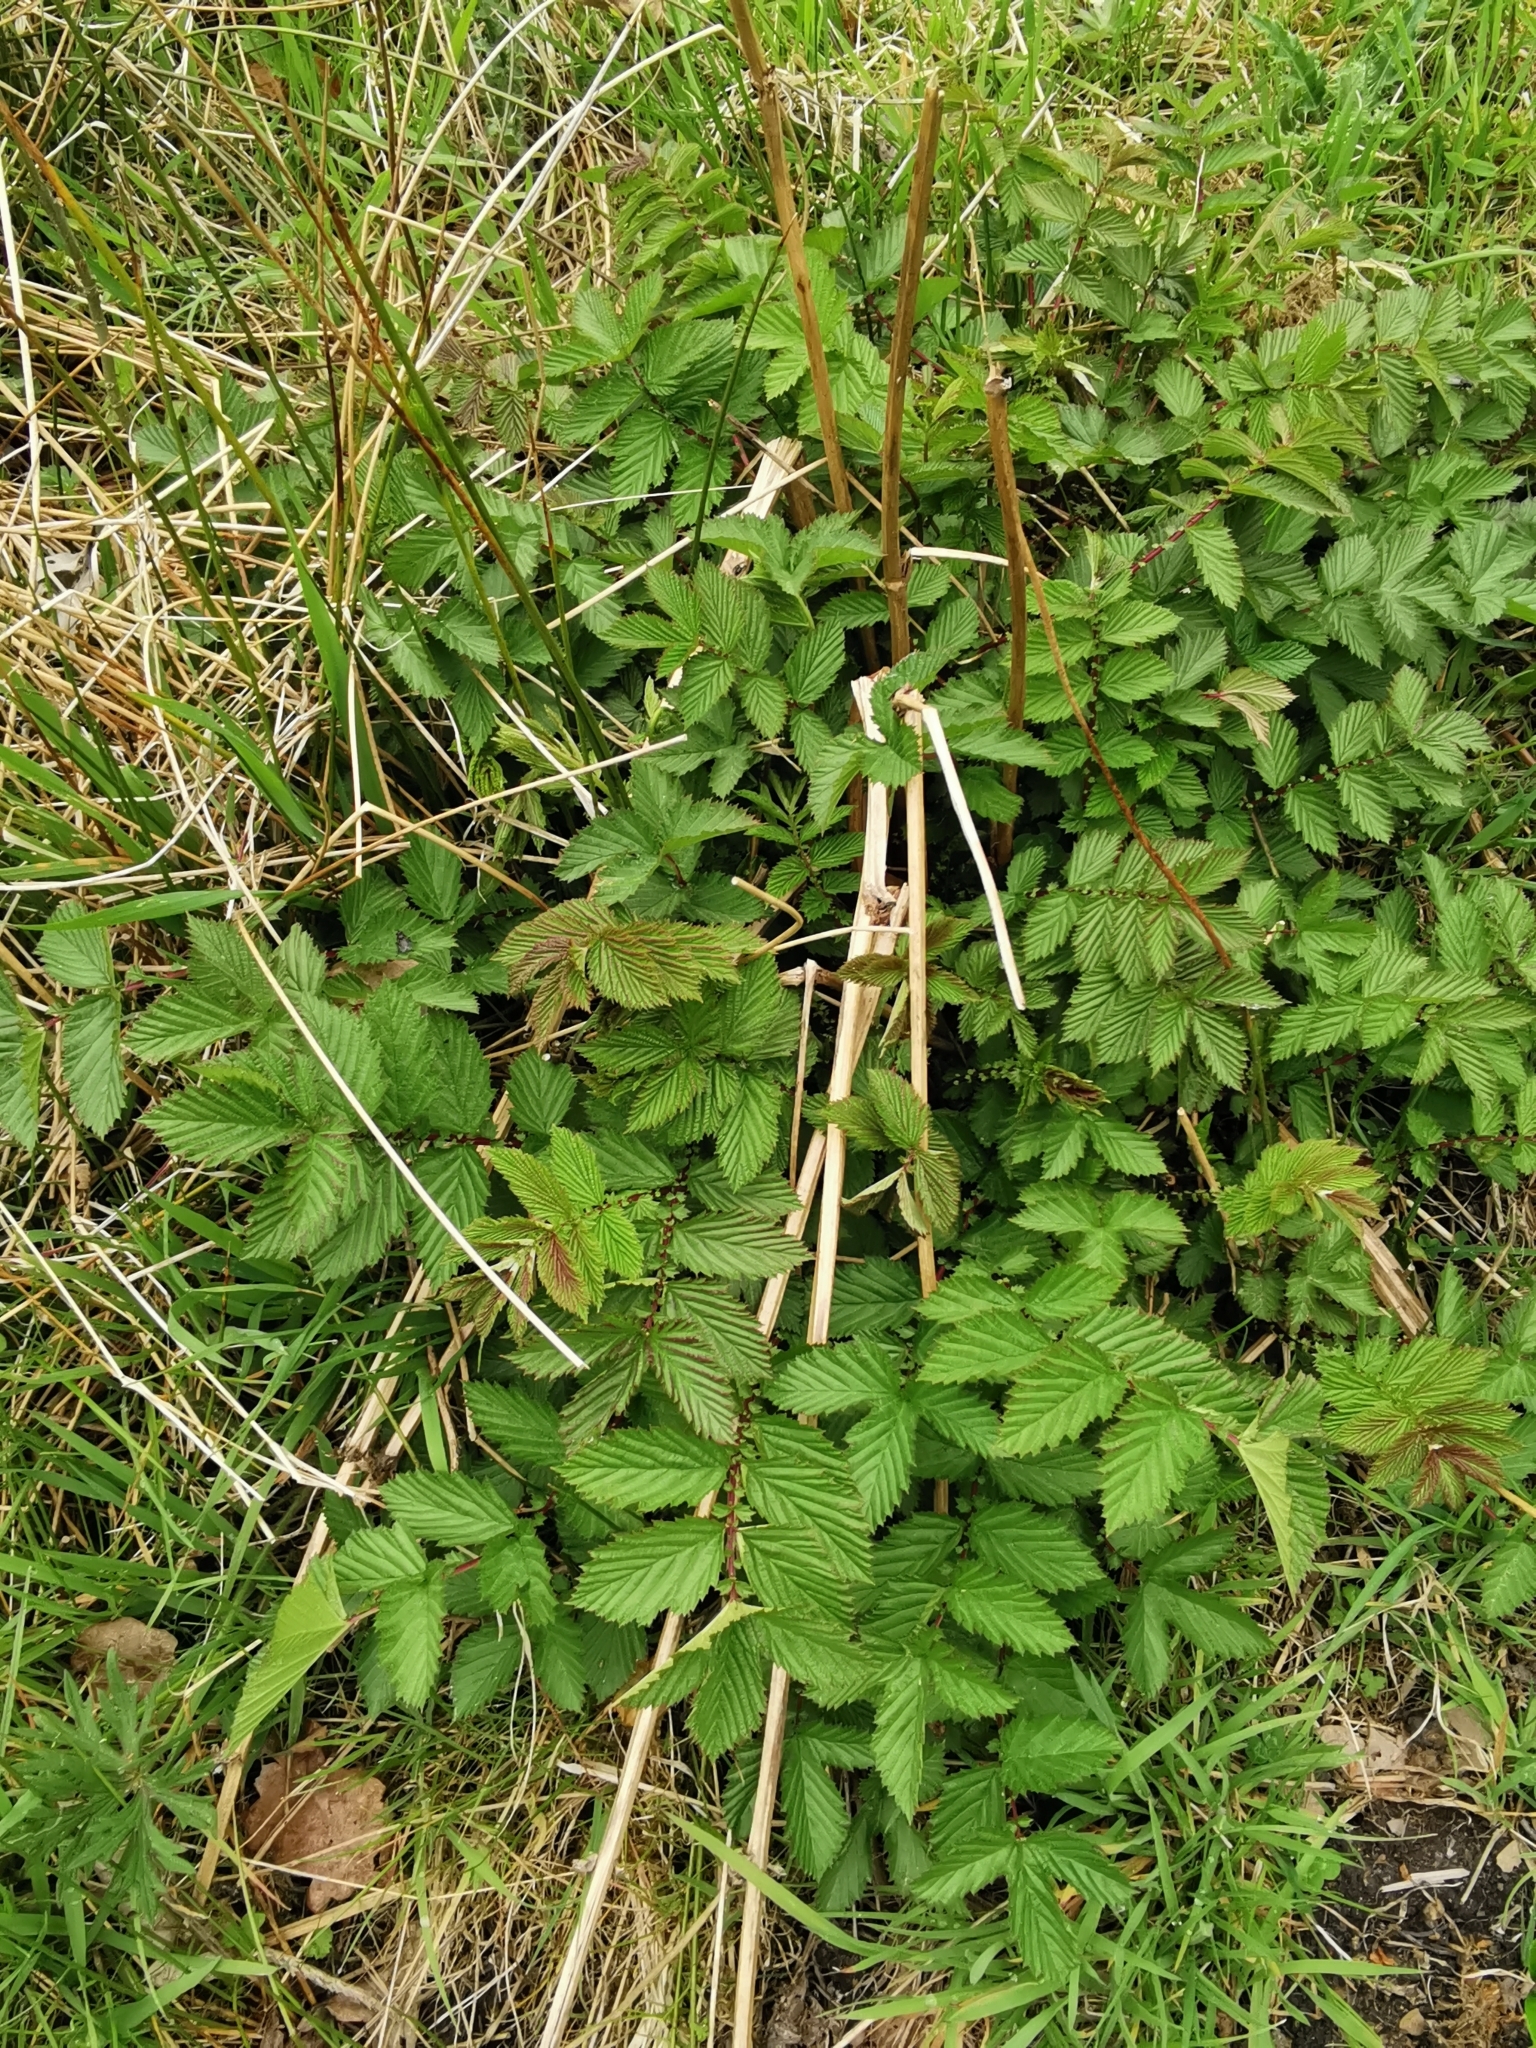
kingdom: Plantae
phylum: Tracheophyta
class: Magnoliopsida
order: Rosales
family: Rosaceae
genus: Filipendula
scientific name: Filipendula ulmaria
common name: Meadowsweet
